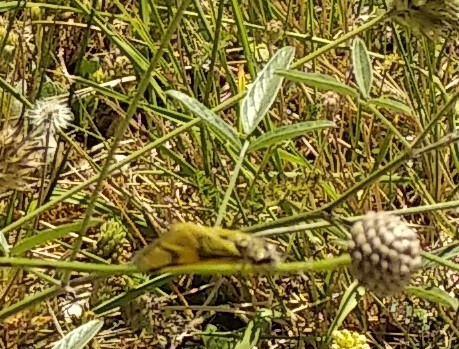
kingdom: Animalia
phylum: Arthropoda
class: Insecta
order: Neuroptera
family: Ascalaphidae
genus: Libelloides
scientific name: Libelloides longicornis
